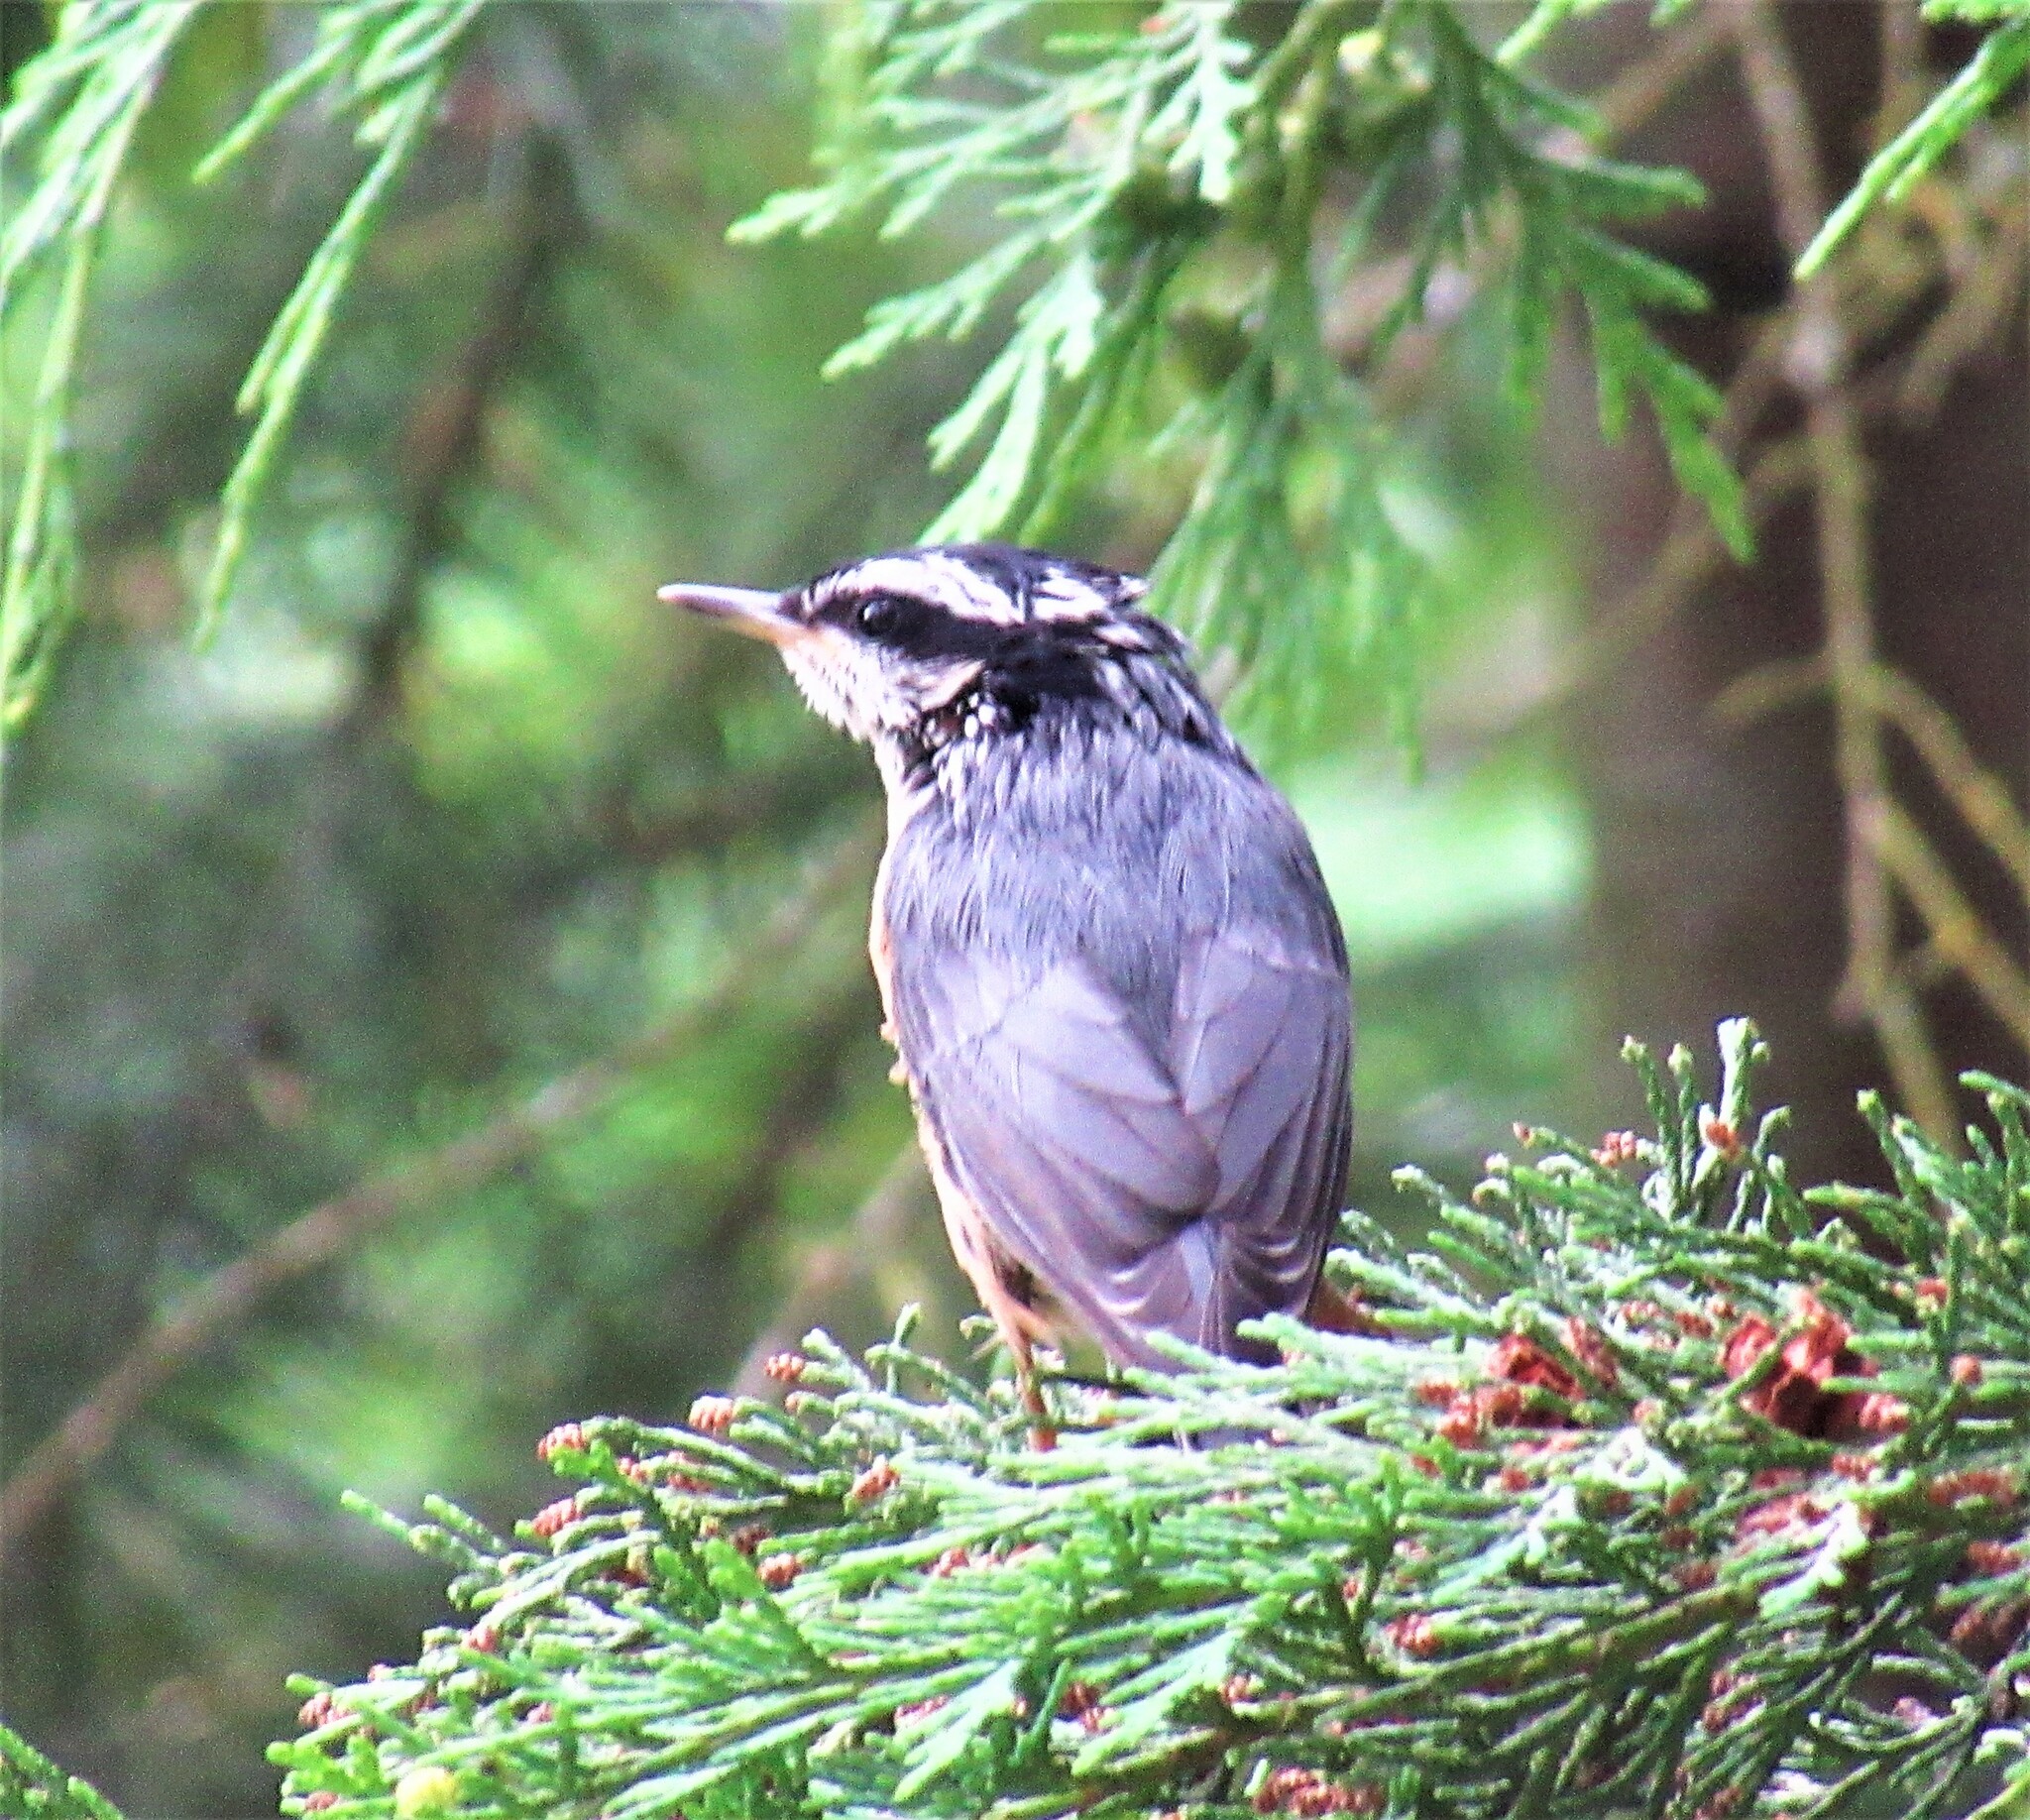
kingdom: Animalia
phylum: Chordata
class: Aves
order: Passeriformes
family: Sittidae
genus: Sitta
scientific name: Sitta canadensis
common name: Red-breasted nuthatch
